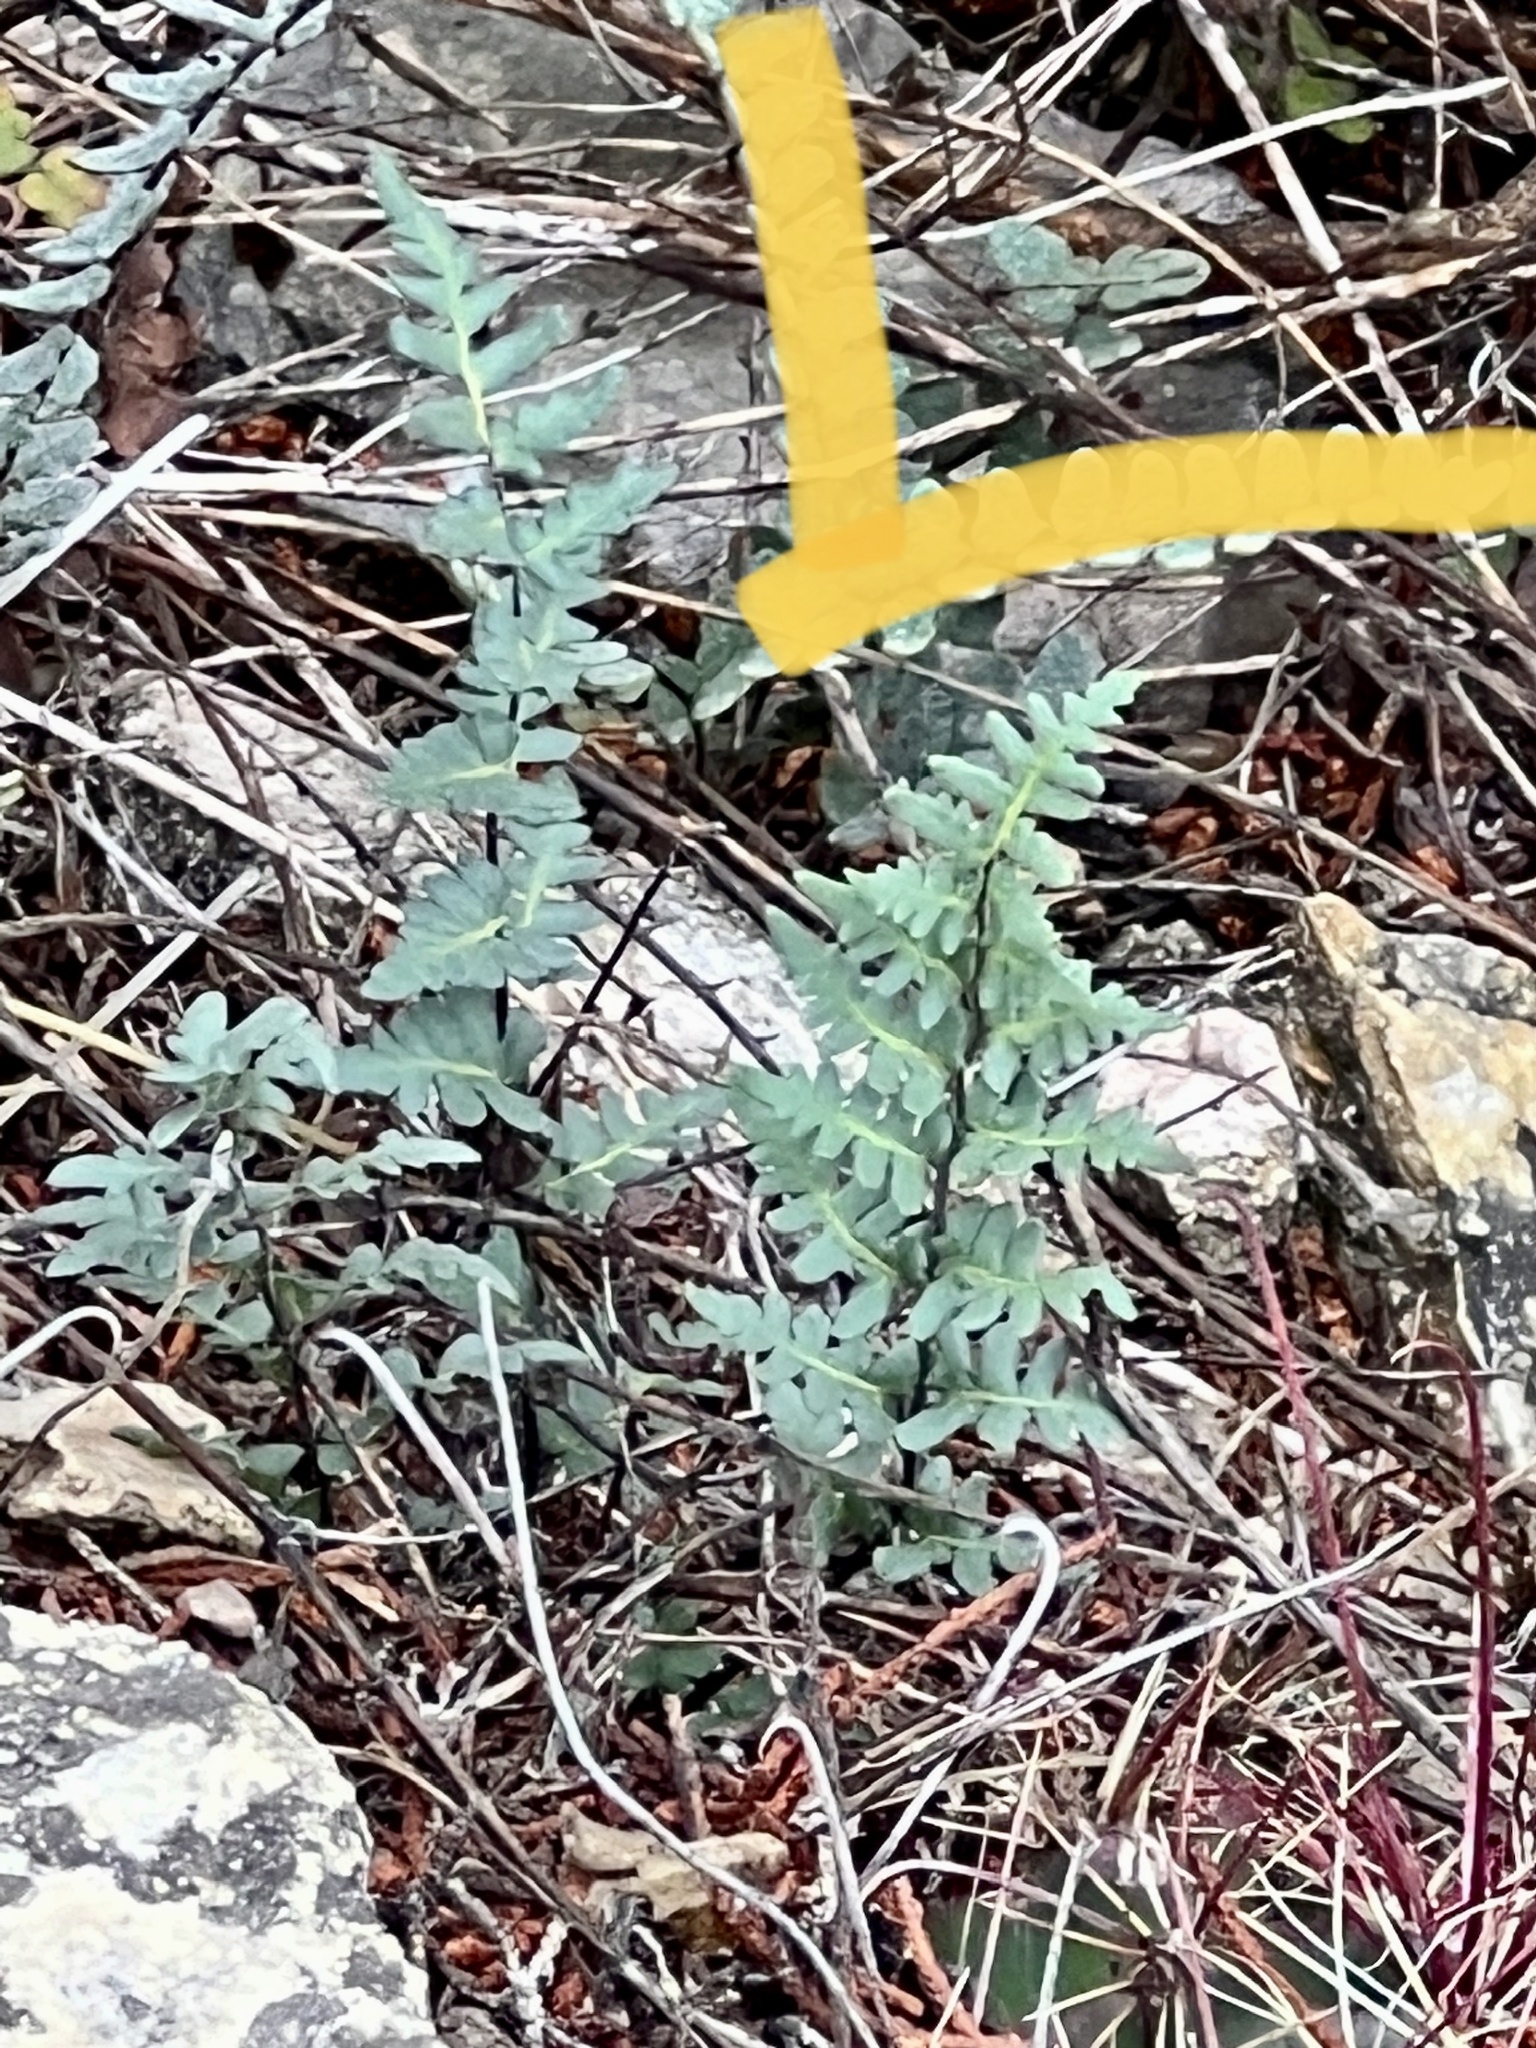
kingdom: Plantae
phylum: Tracheophyta
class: Polypodiopsida
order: Polypodiales
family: Pteridaceae
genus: Myriopteris
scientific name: Myriopteris scabra
